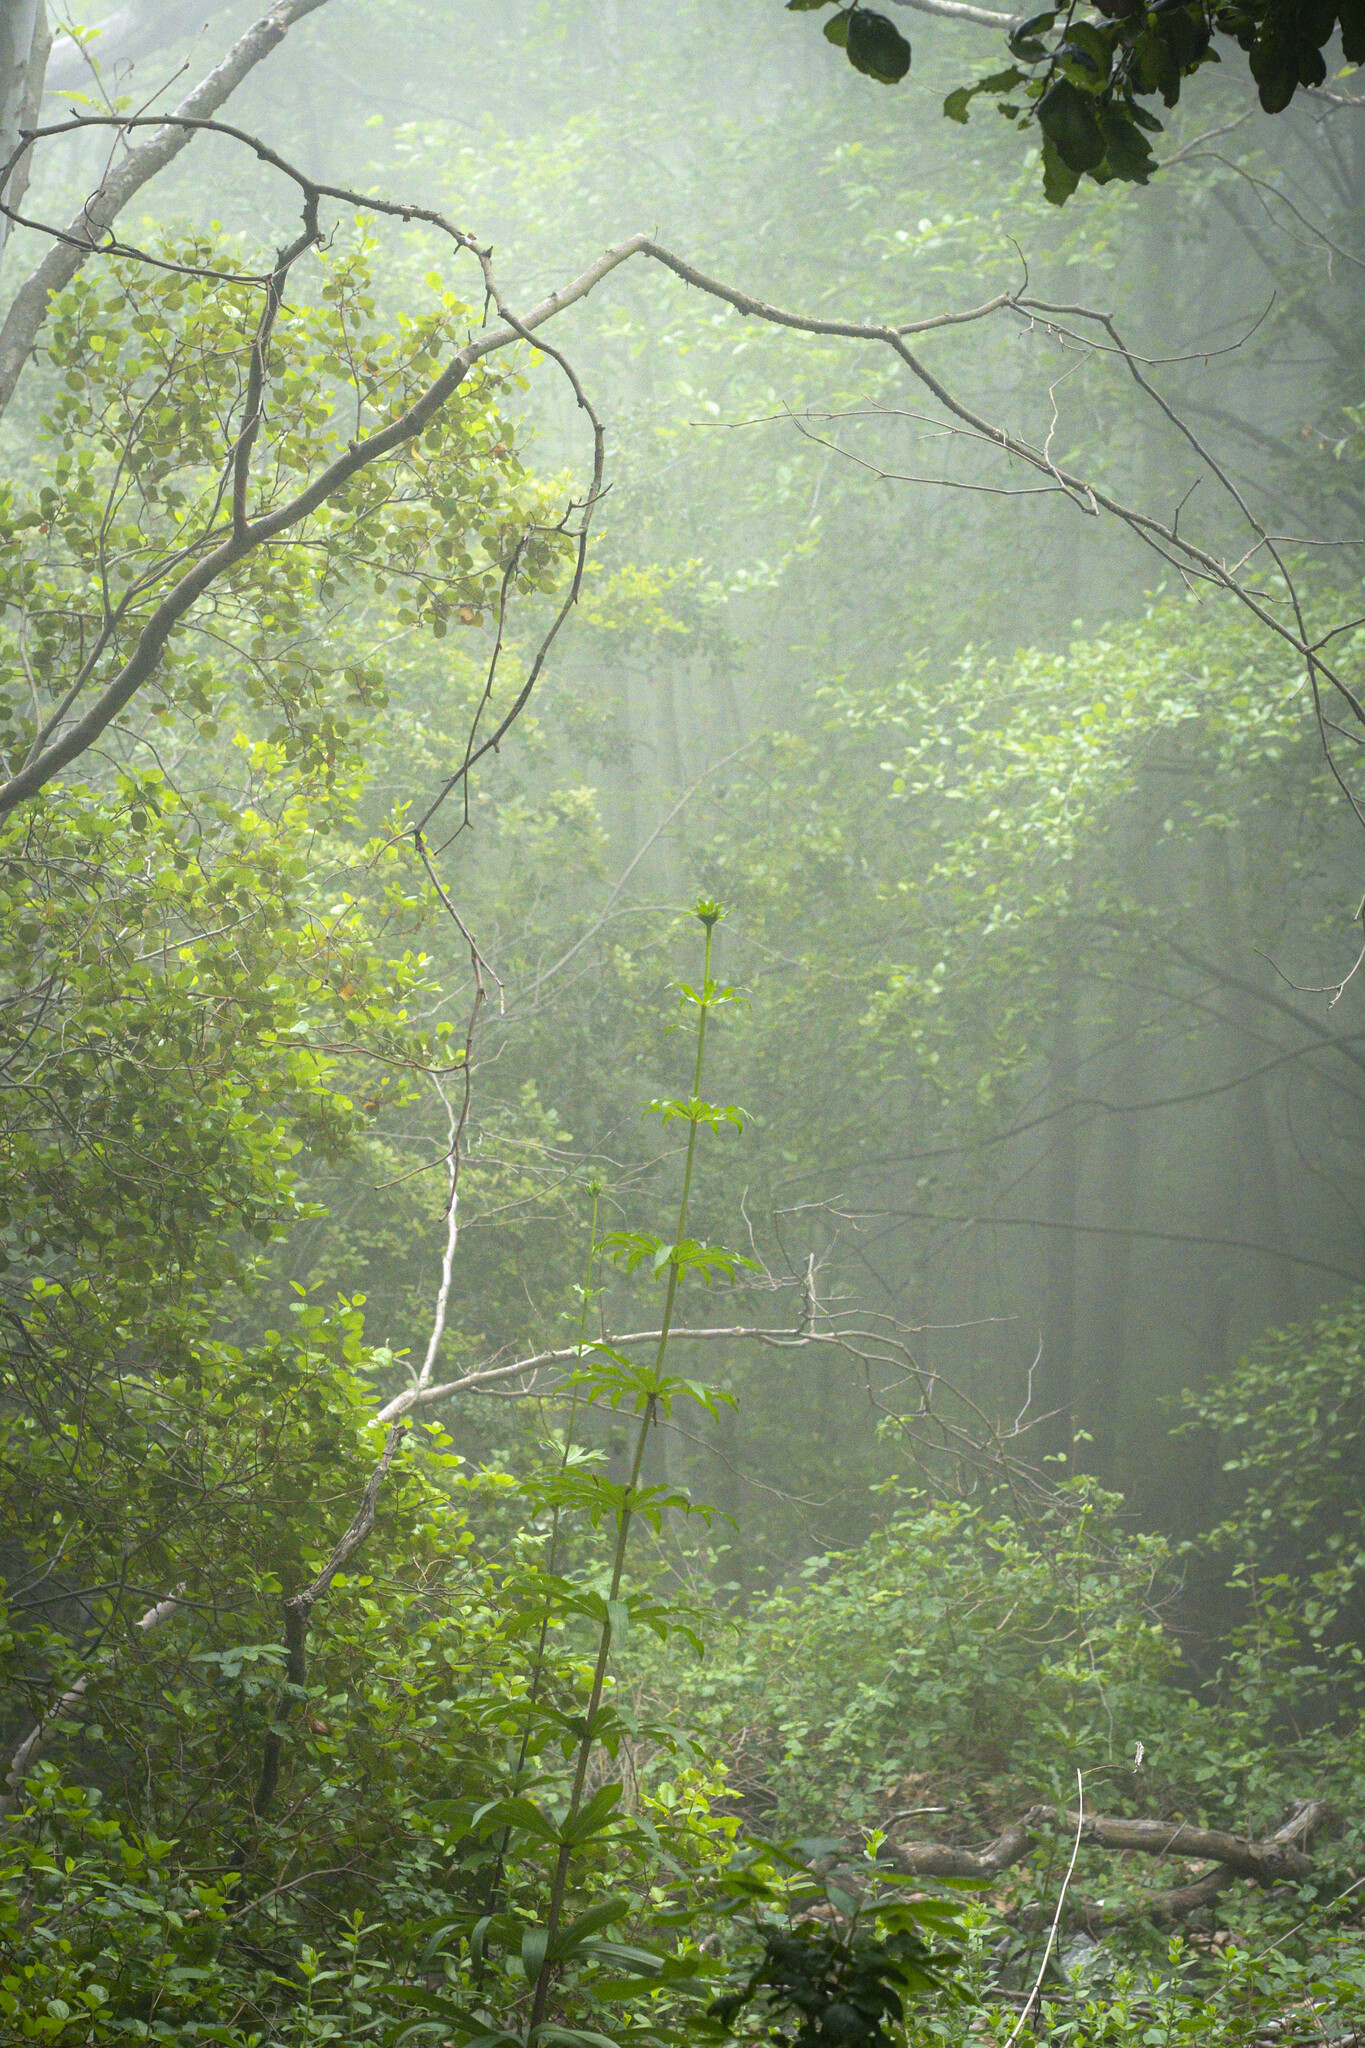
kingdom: Plantae
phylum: Tracheophyta
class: Liliopsida
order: Liliales
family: Liliaceae
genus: Lilium
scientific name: Lilium humboldtii
